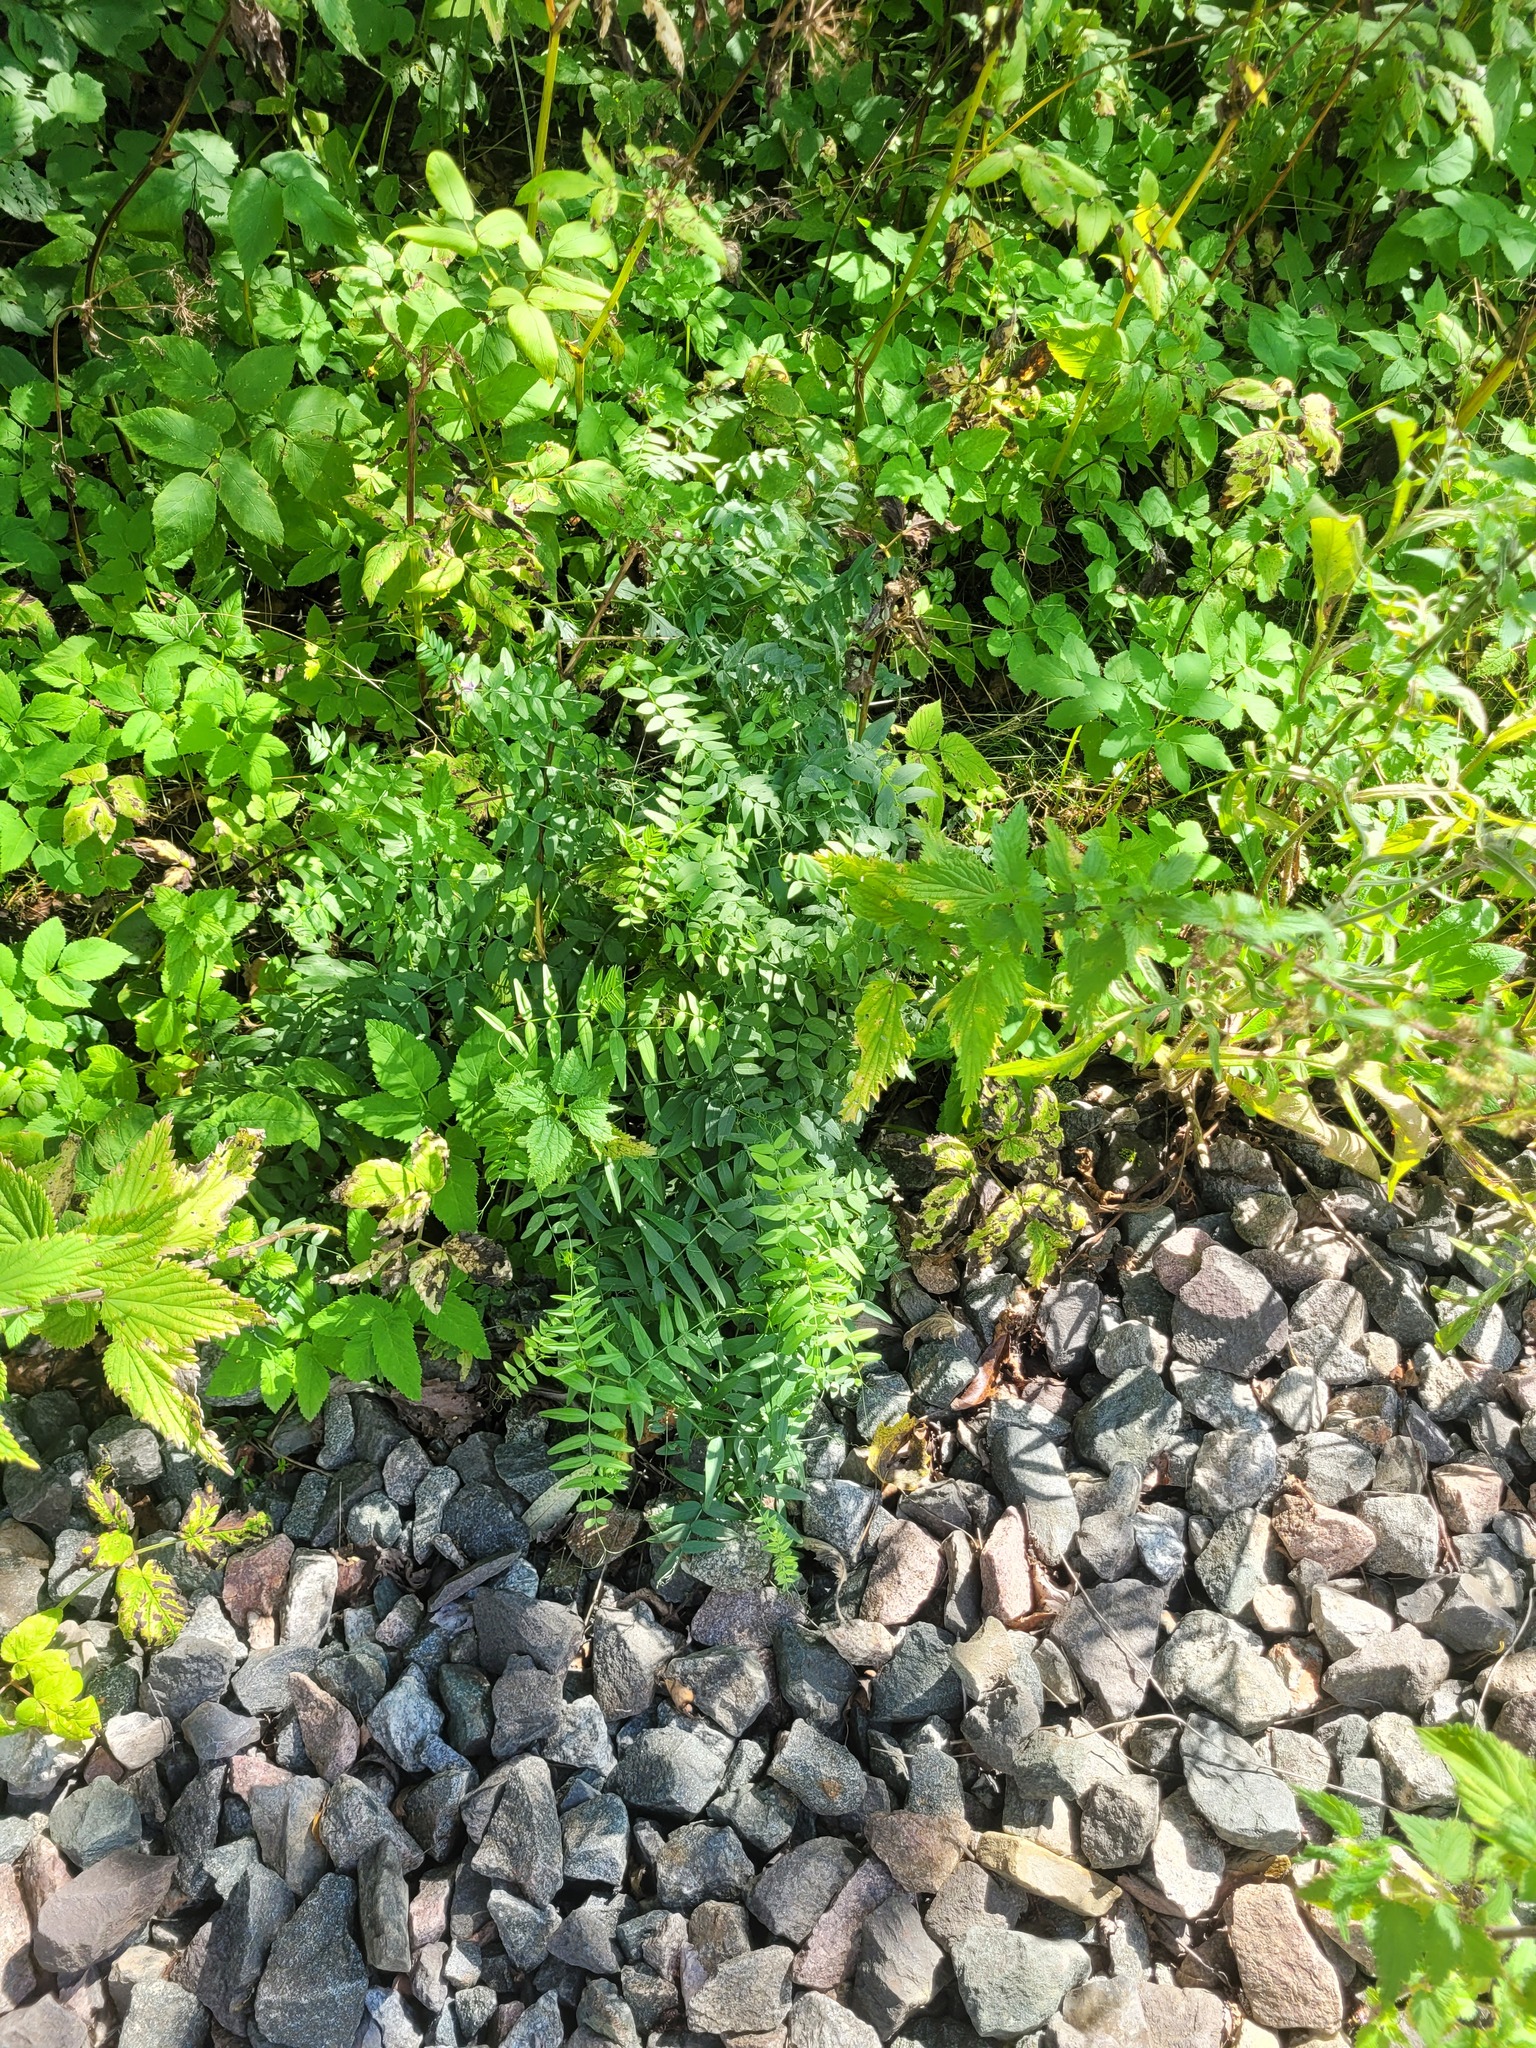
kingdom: Plantae
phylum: Tracheophyta
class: Magnoliopsida
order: Fabales
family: Fabaceae
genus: Vicia
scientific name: Vicia sepium
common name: Bush vetch
